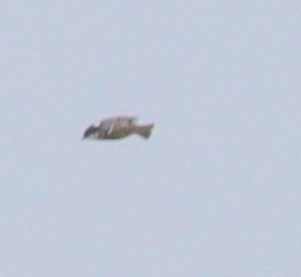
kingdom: Animalia
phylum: Chordata
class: Aves
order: Passeriformes
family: Paridae
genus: Periparus
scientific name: Periparus ater
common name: Coal tit
